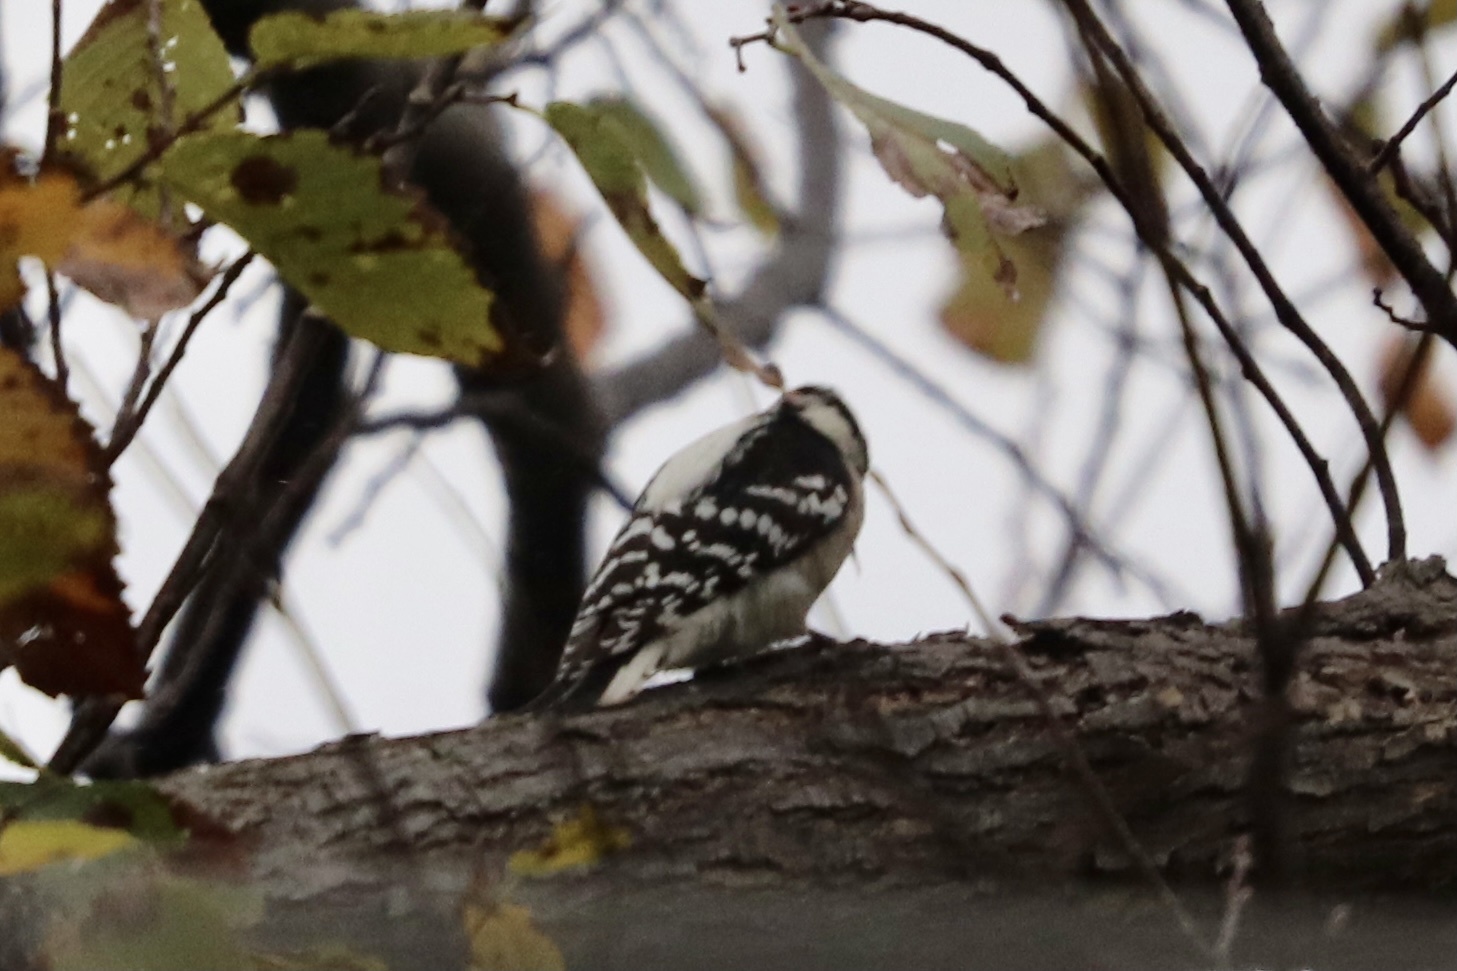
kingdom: Animalia
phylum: Chordata
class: Aves
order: Piciformes
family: Picidae
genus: Dryobates
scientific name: Dryobates pubescens
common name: Downy woodpecker
